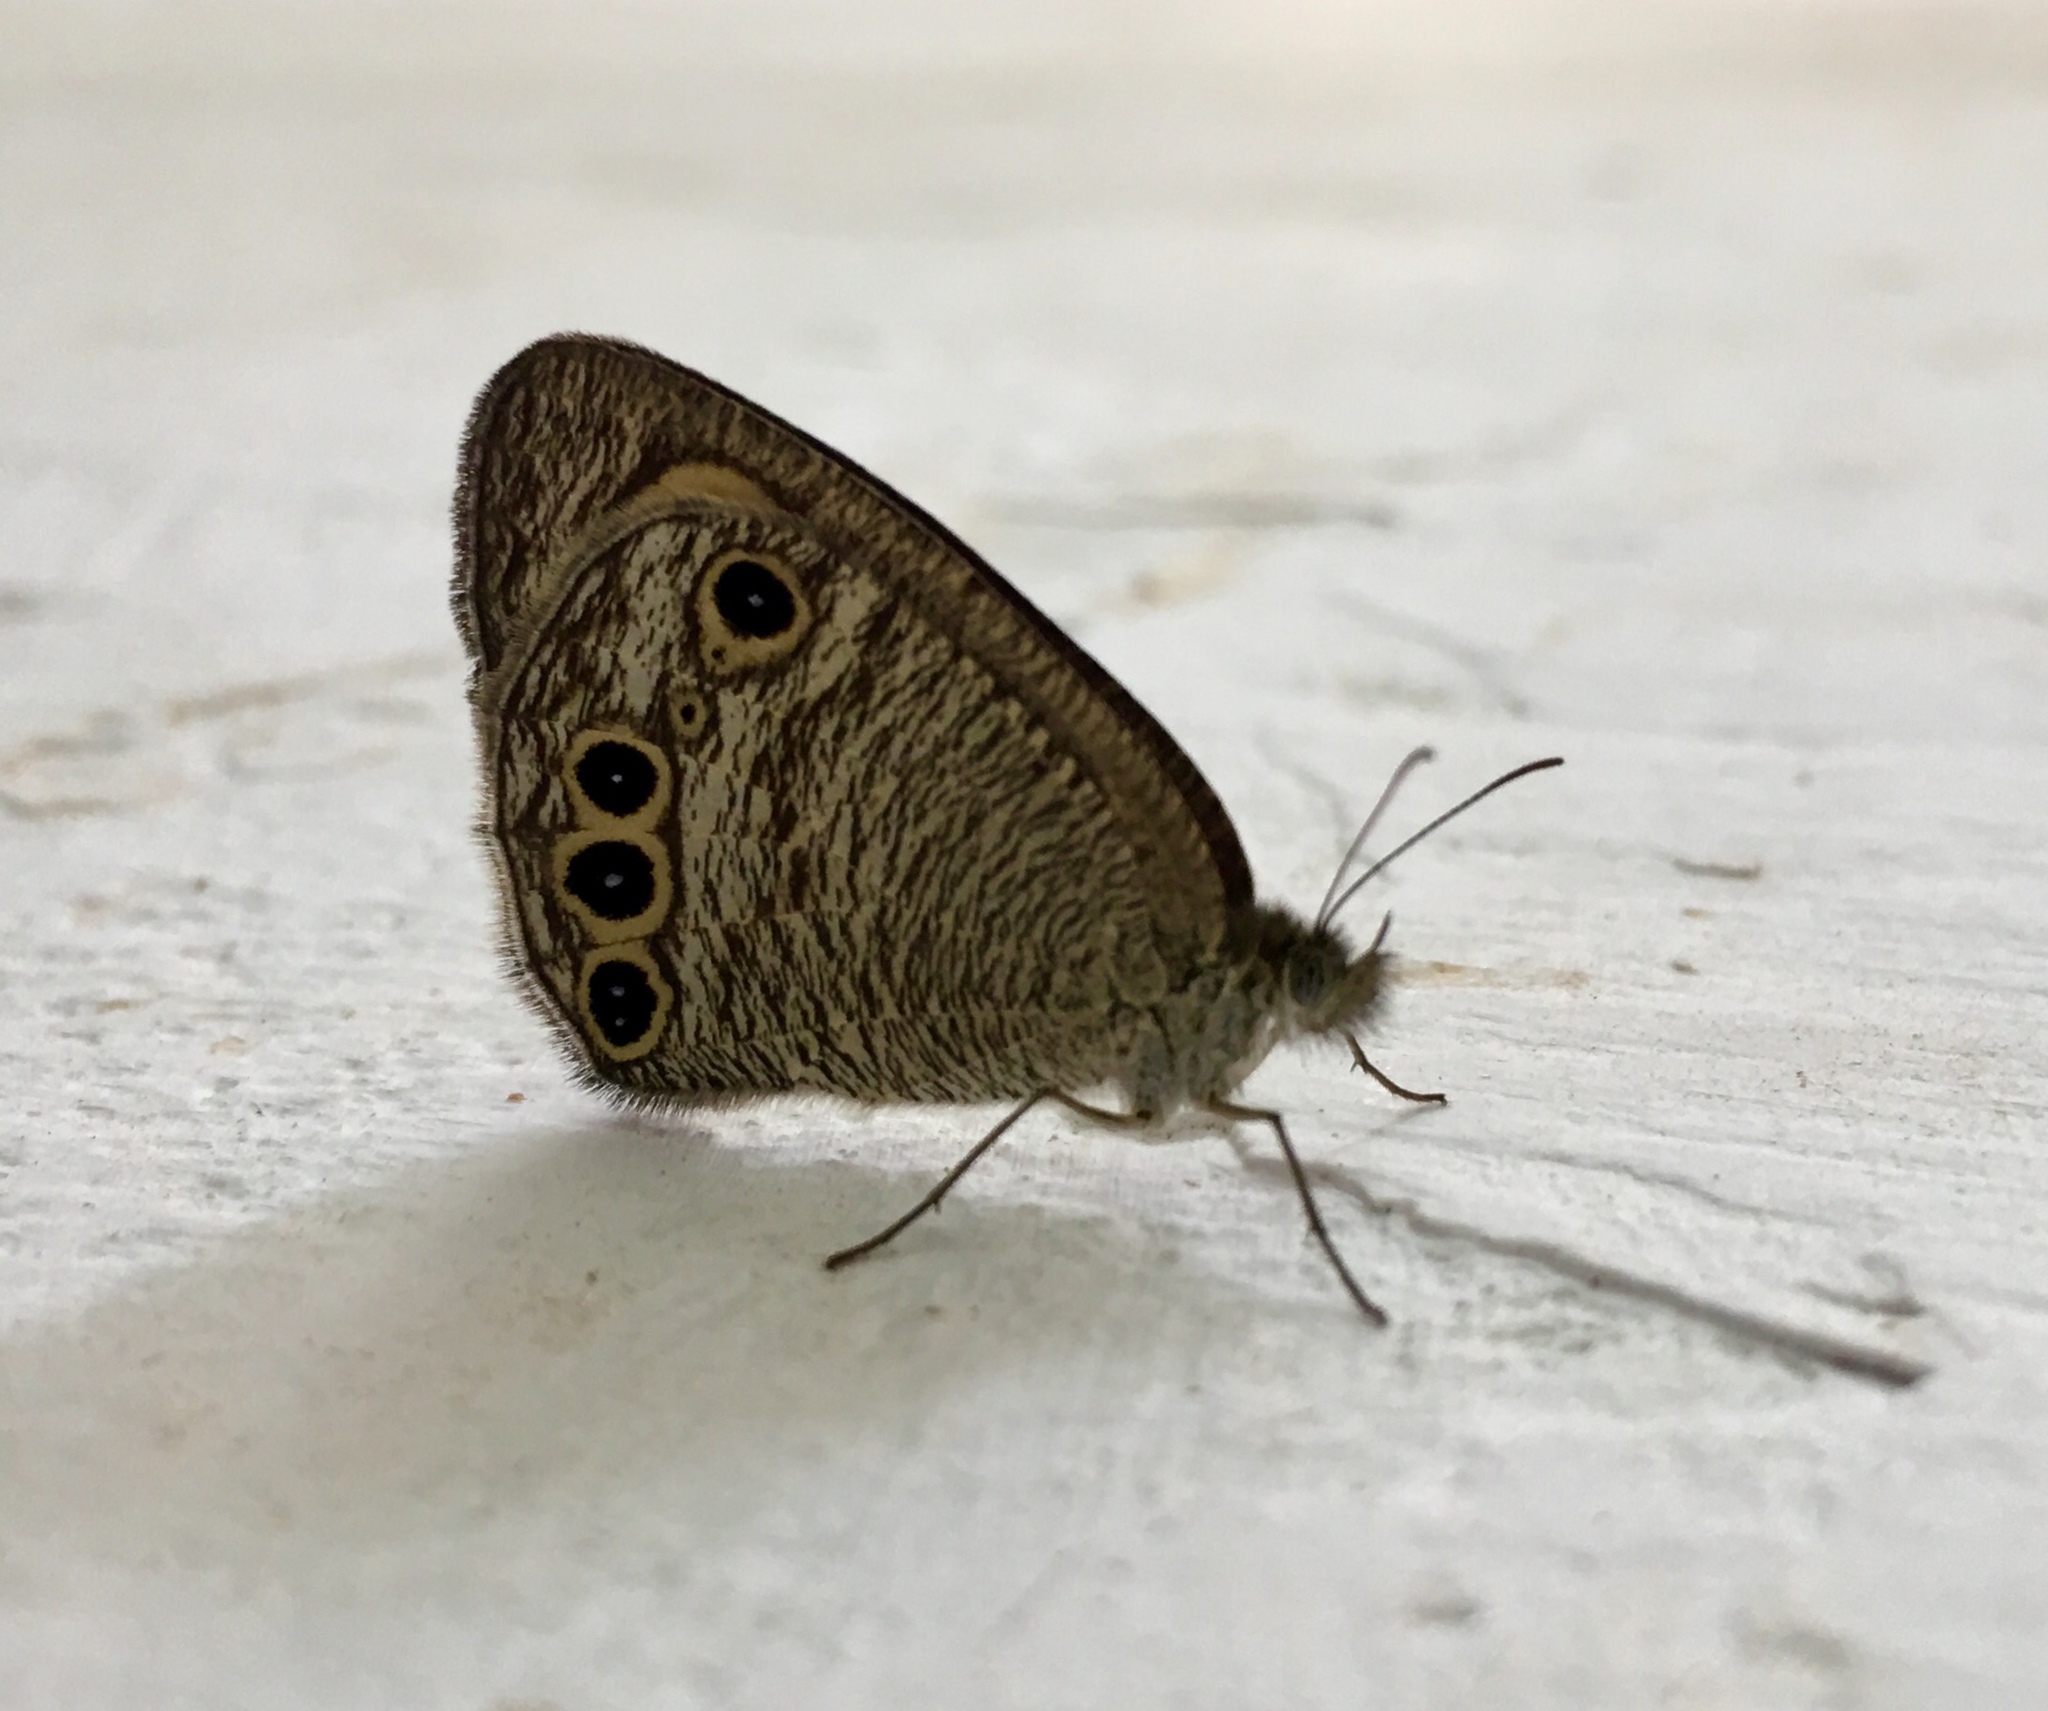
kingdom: Animalia
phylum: Arthropoda
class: Insecta
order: Lepidoptera
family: Nymphalidae
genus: Ypthima
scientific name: Ypthima huebneri
